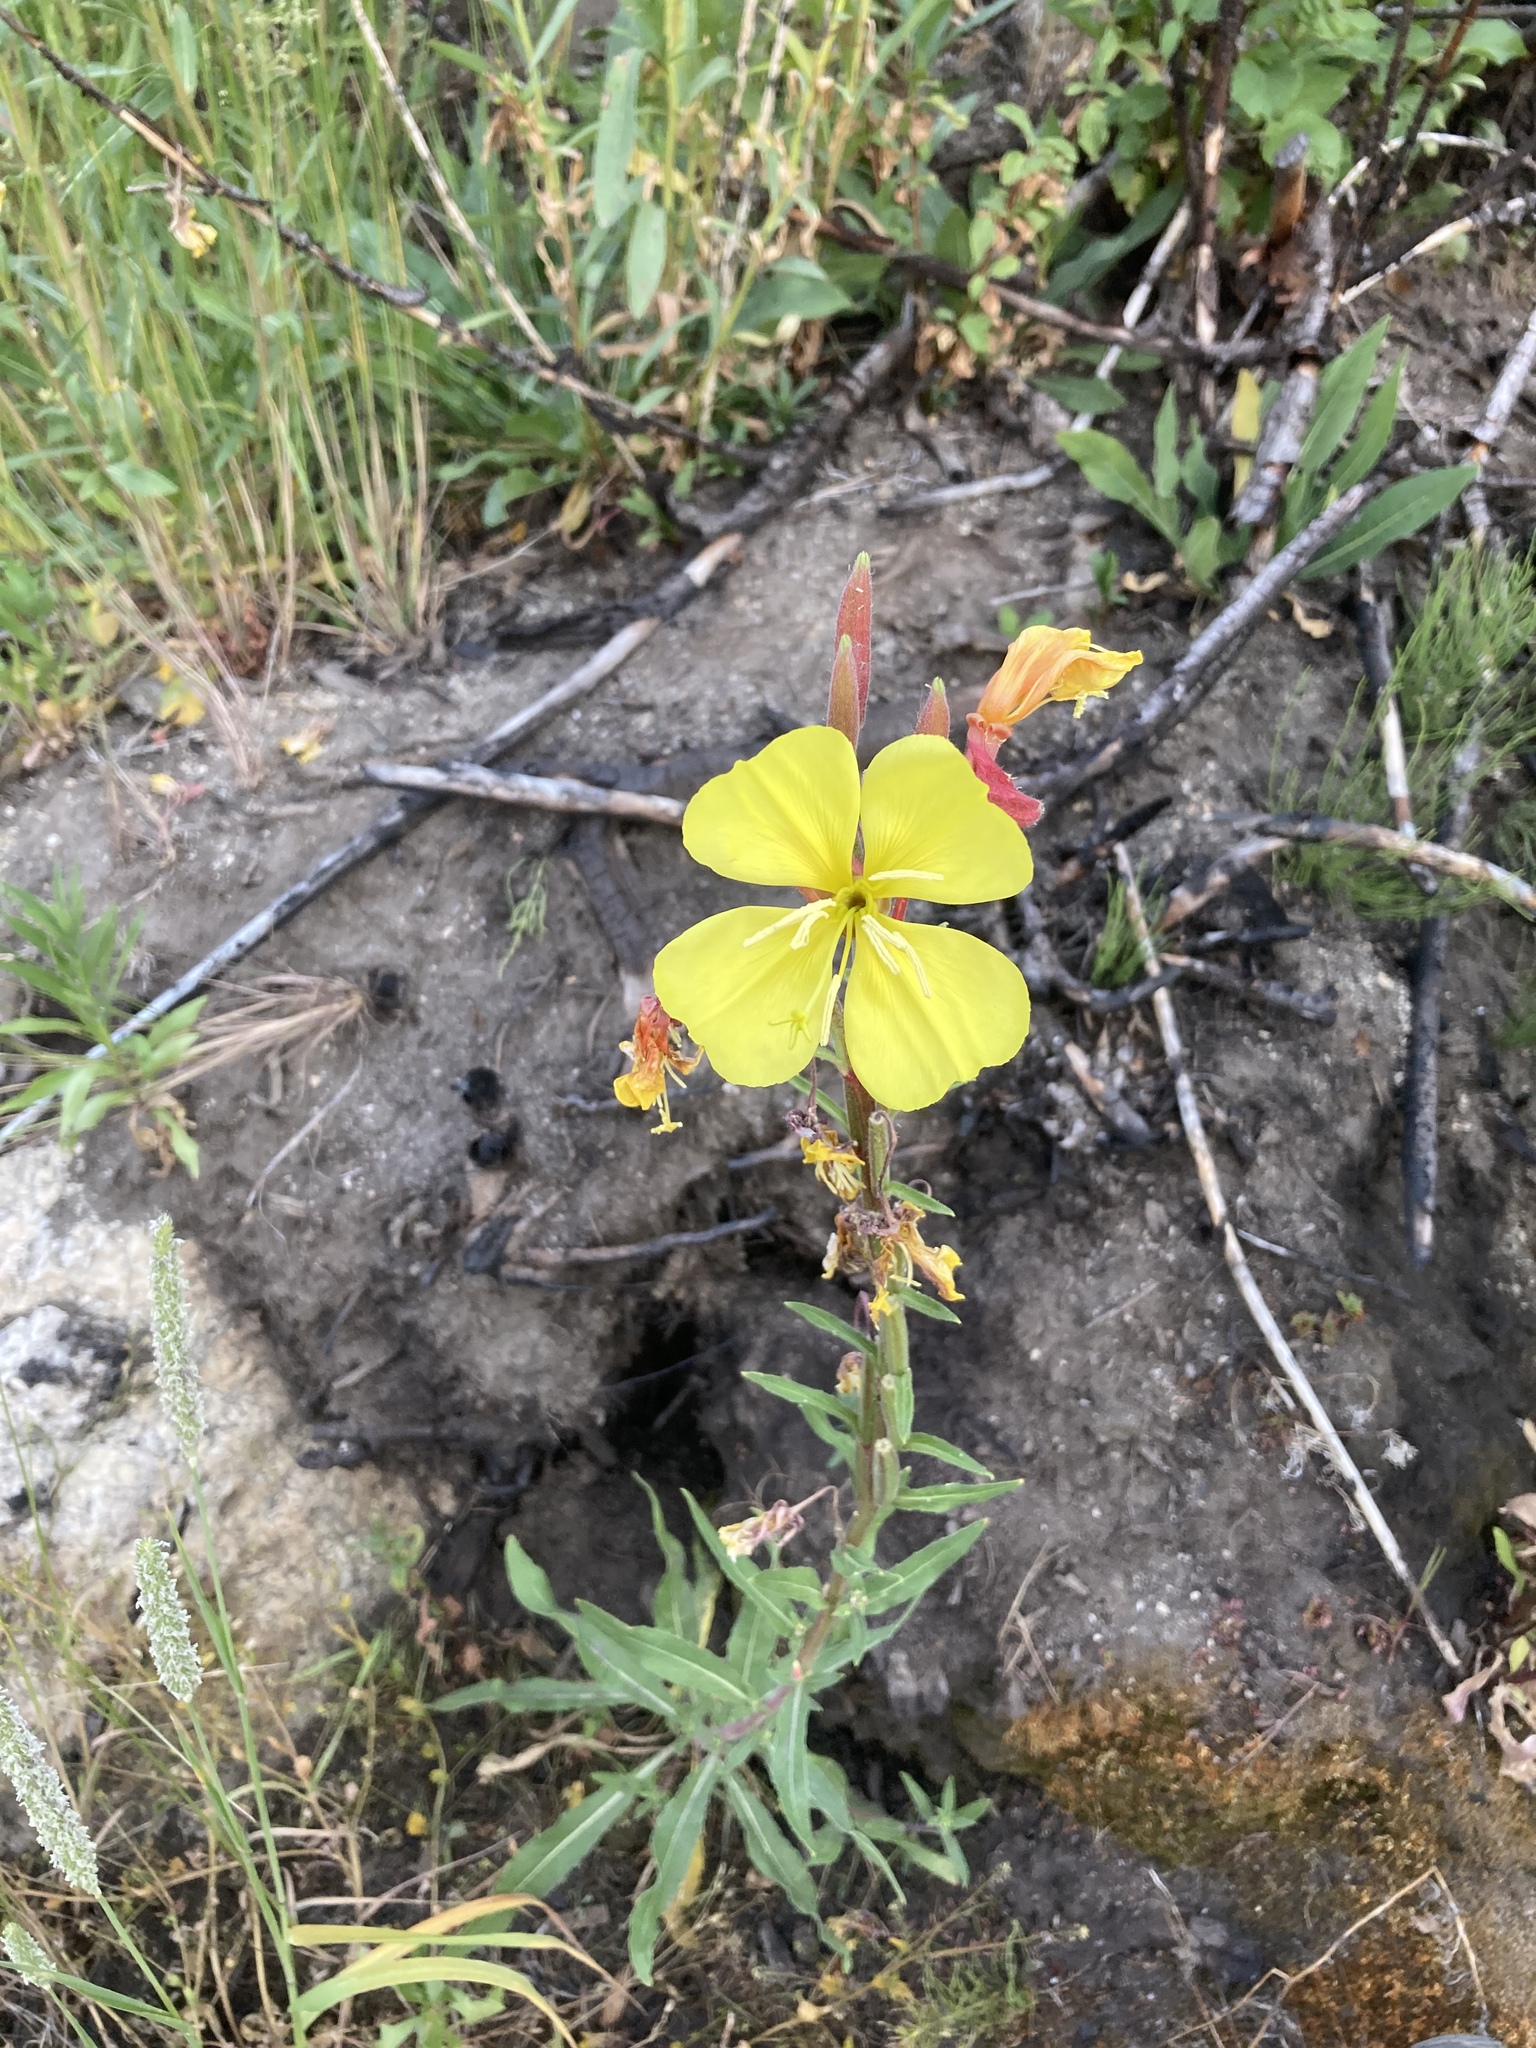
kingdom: Plantae
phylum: Tracheophyta
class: Magnoliopsida
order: Myrtales
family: Onagraceae
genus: Oenothera
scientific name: Oenothera elata
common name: Hooker's evening-primrose
